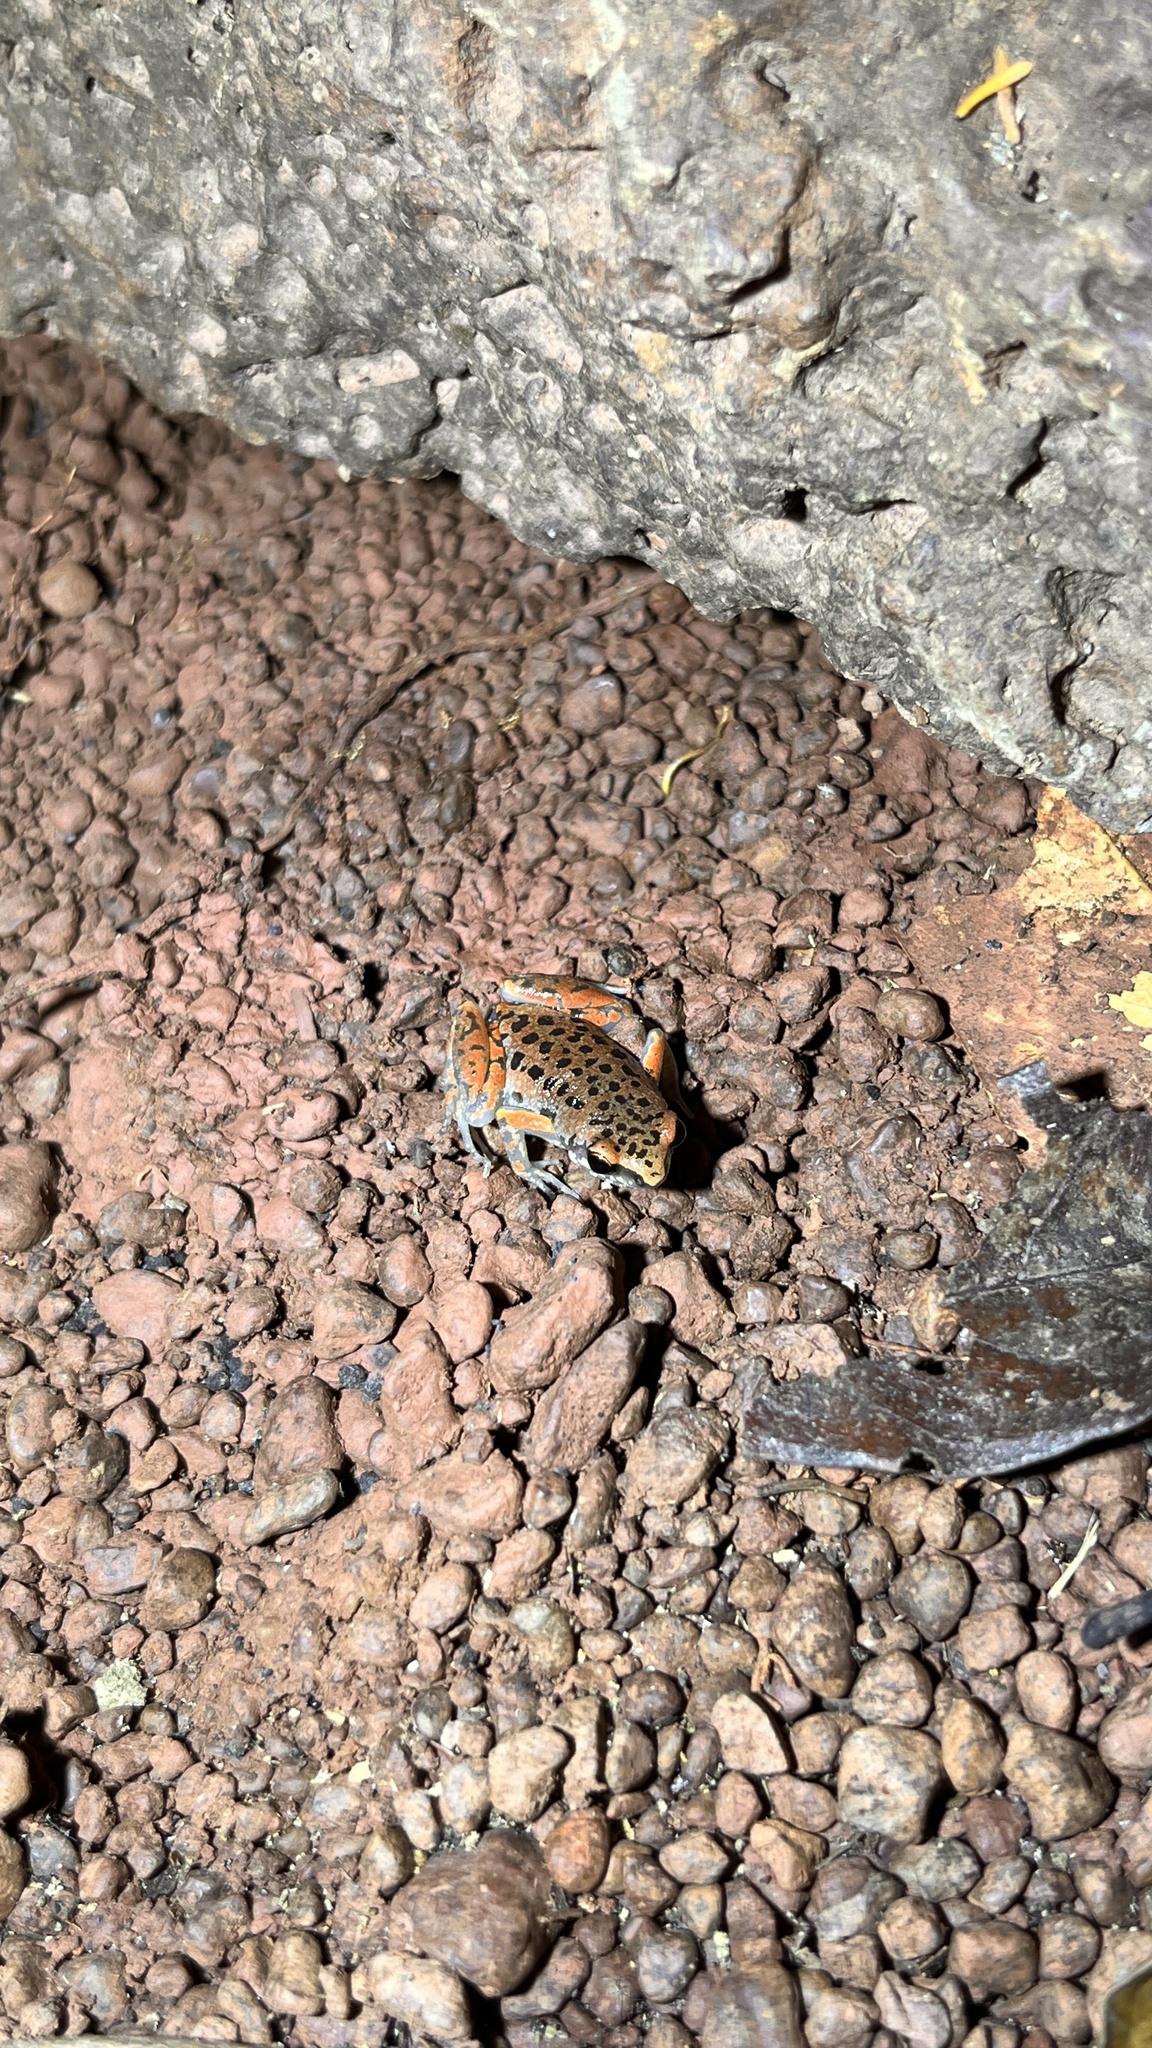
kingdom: Animalia
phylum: Chordata
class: Amphibia
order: Anura
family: Microhylidae
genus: Micryletta
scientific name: Micryletta erythropoda
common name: Mada paddy frog
